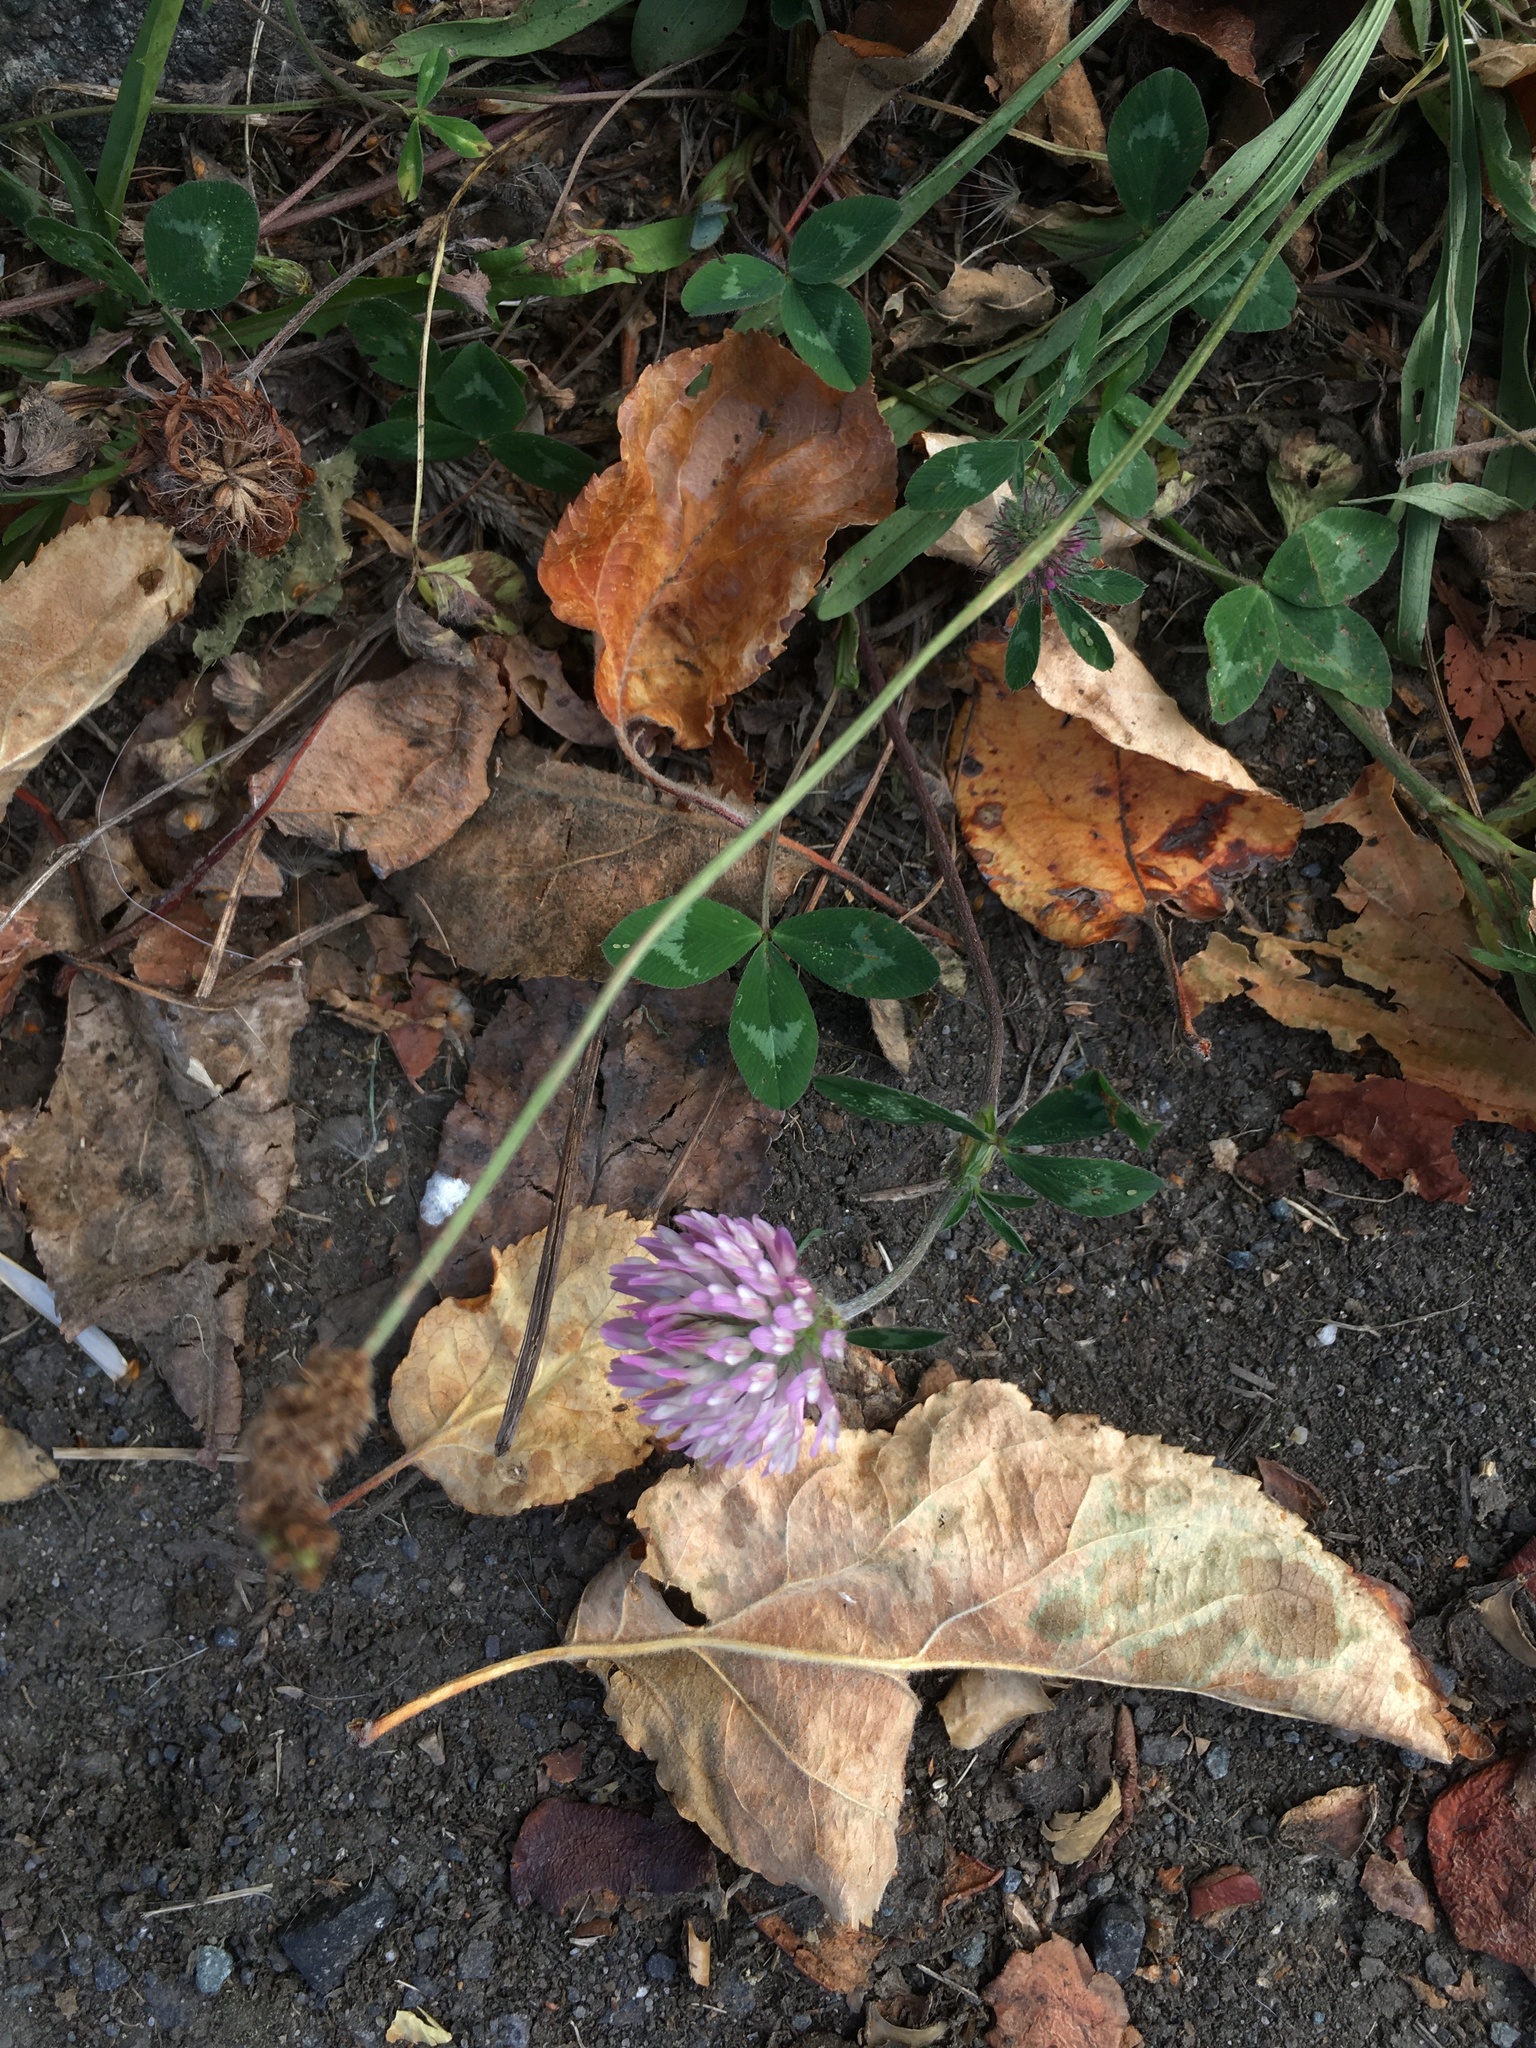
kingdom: Plantae
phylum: Tracheophyta
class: Magnoliopsida
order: Fabales
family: Fabaceae
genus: Trifolium
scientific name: Trifolium pratense
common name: Red clover
